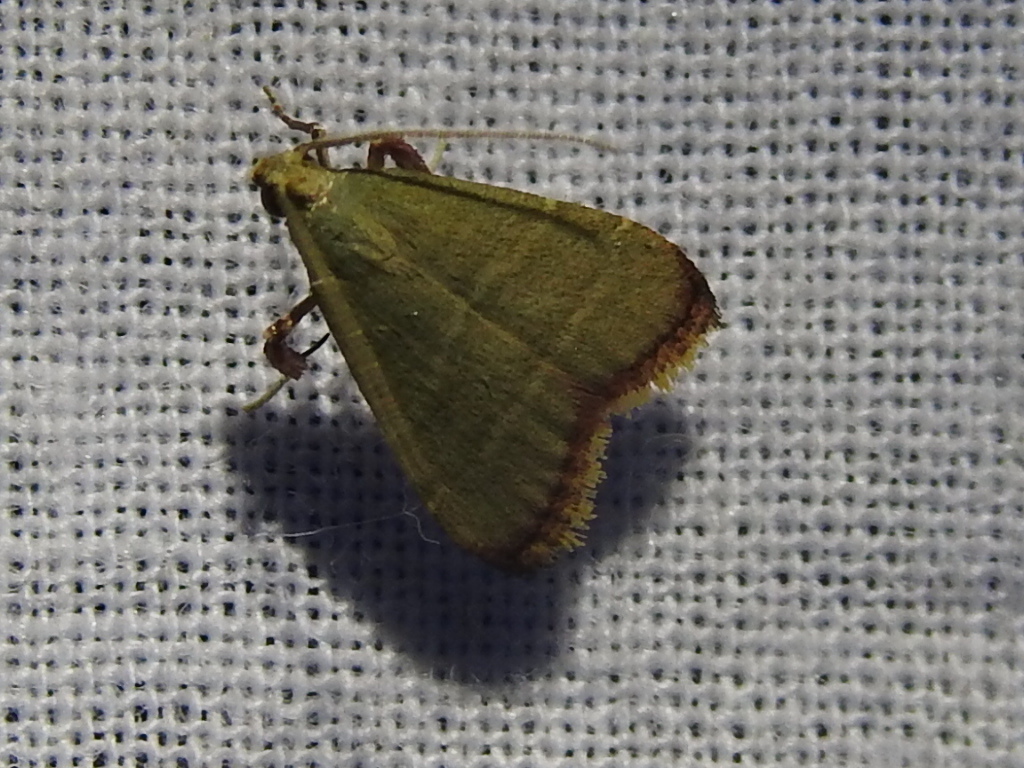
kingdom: Animalia
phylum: Arthropoda
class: Insecta
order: Lepidoptera
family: Pyralidae
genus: Arta
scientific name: Arta olivalis
